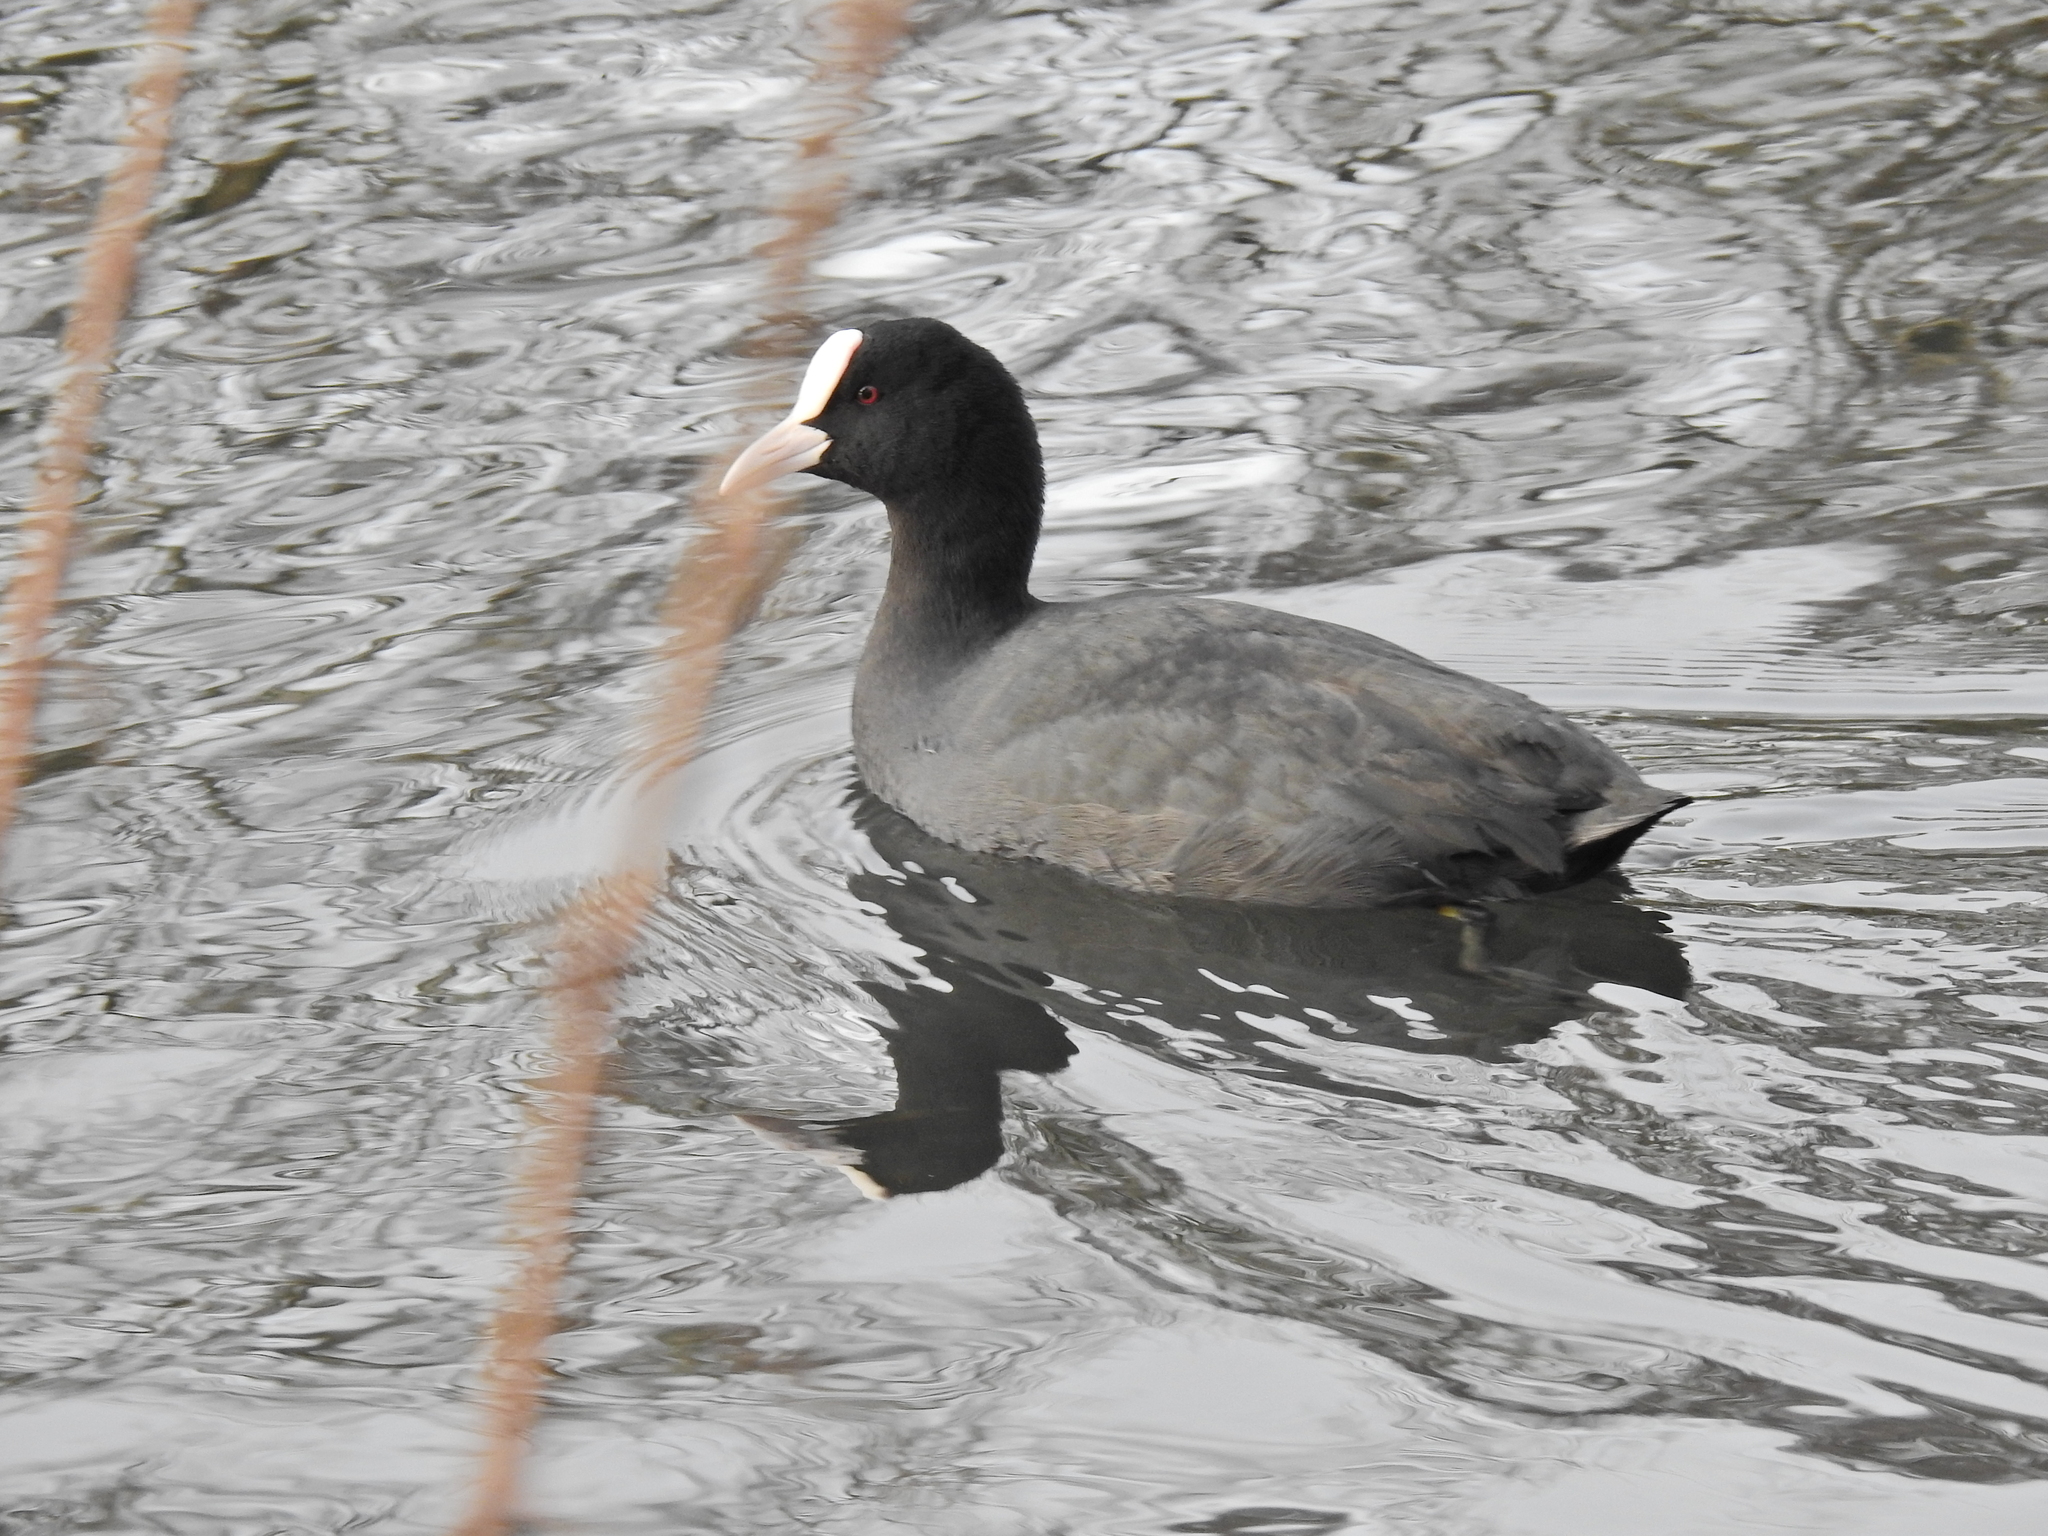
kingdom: Animalia
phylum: Chordata
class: Aves
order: Gruiformes
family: Rallidae
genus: Fulica
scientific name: Fulica atra
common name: Eurasian coot
